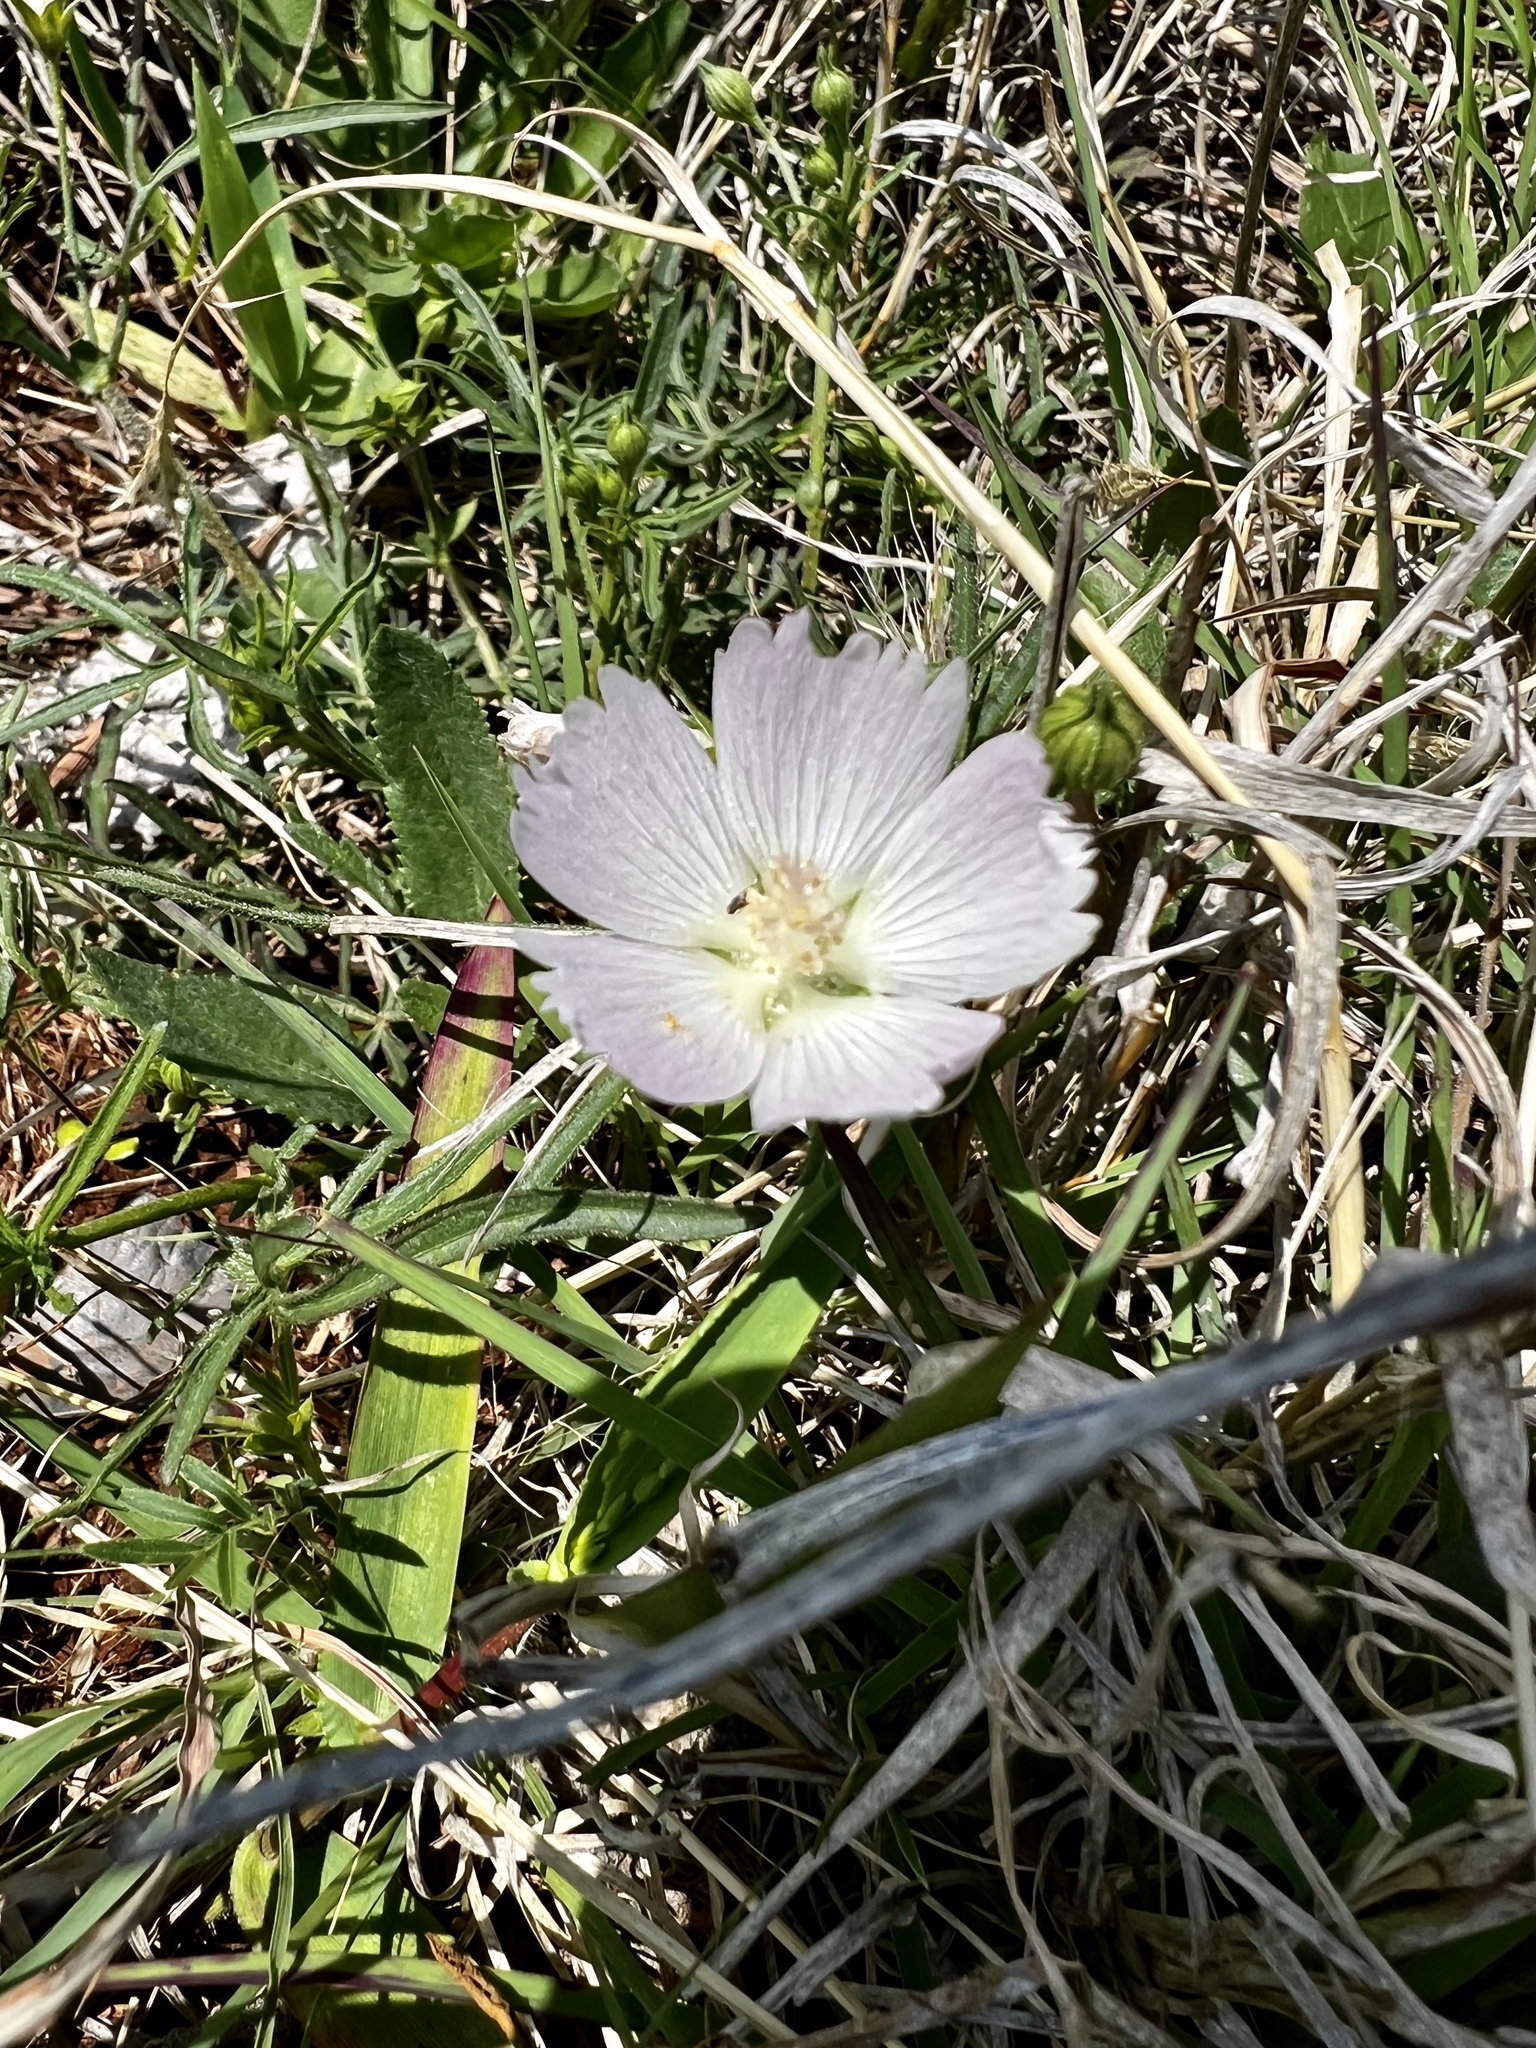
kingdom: Plantae
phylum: Tracheophyta
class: Magnoliopsida
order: Malvales
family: Malvaceae
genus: Callirhoe
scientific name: Callirhoe alcaeoides
